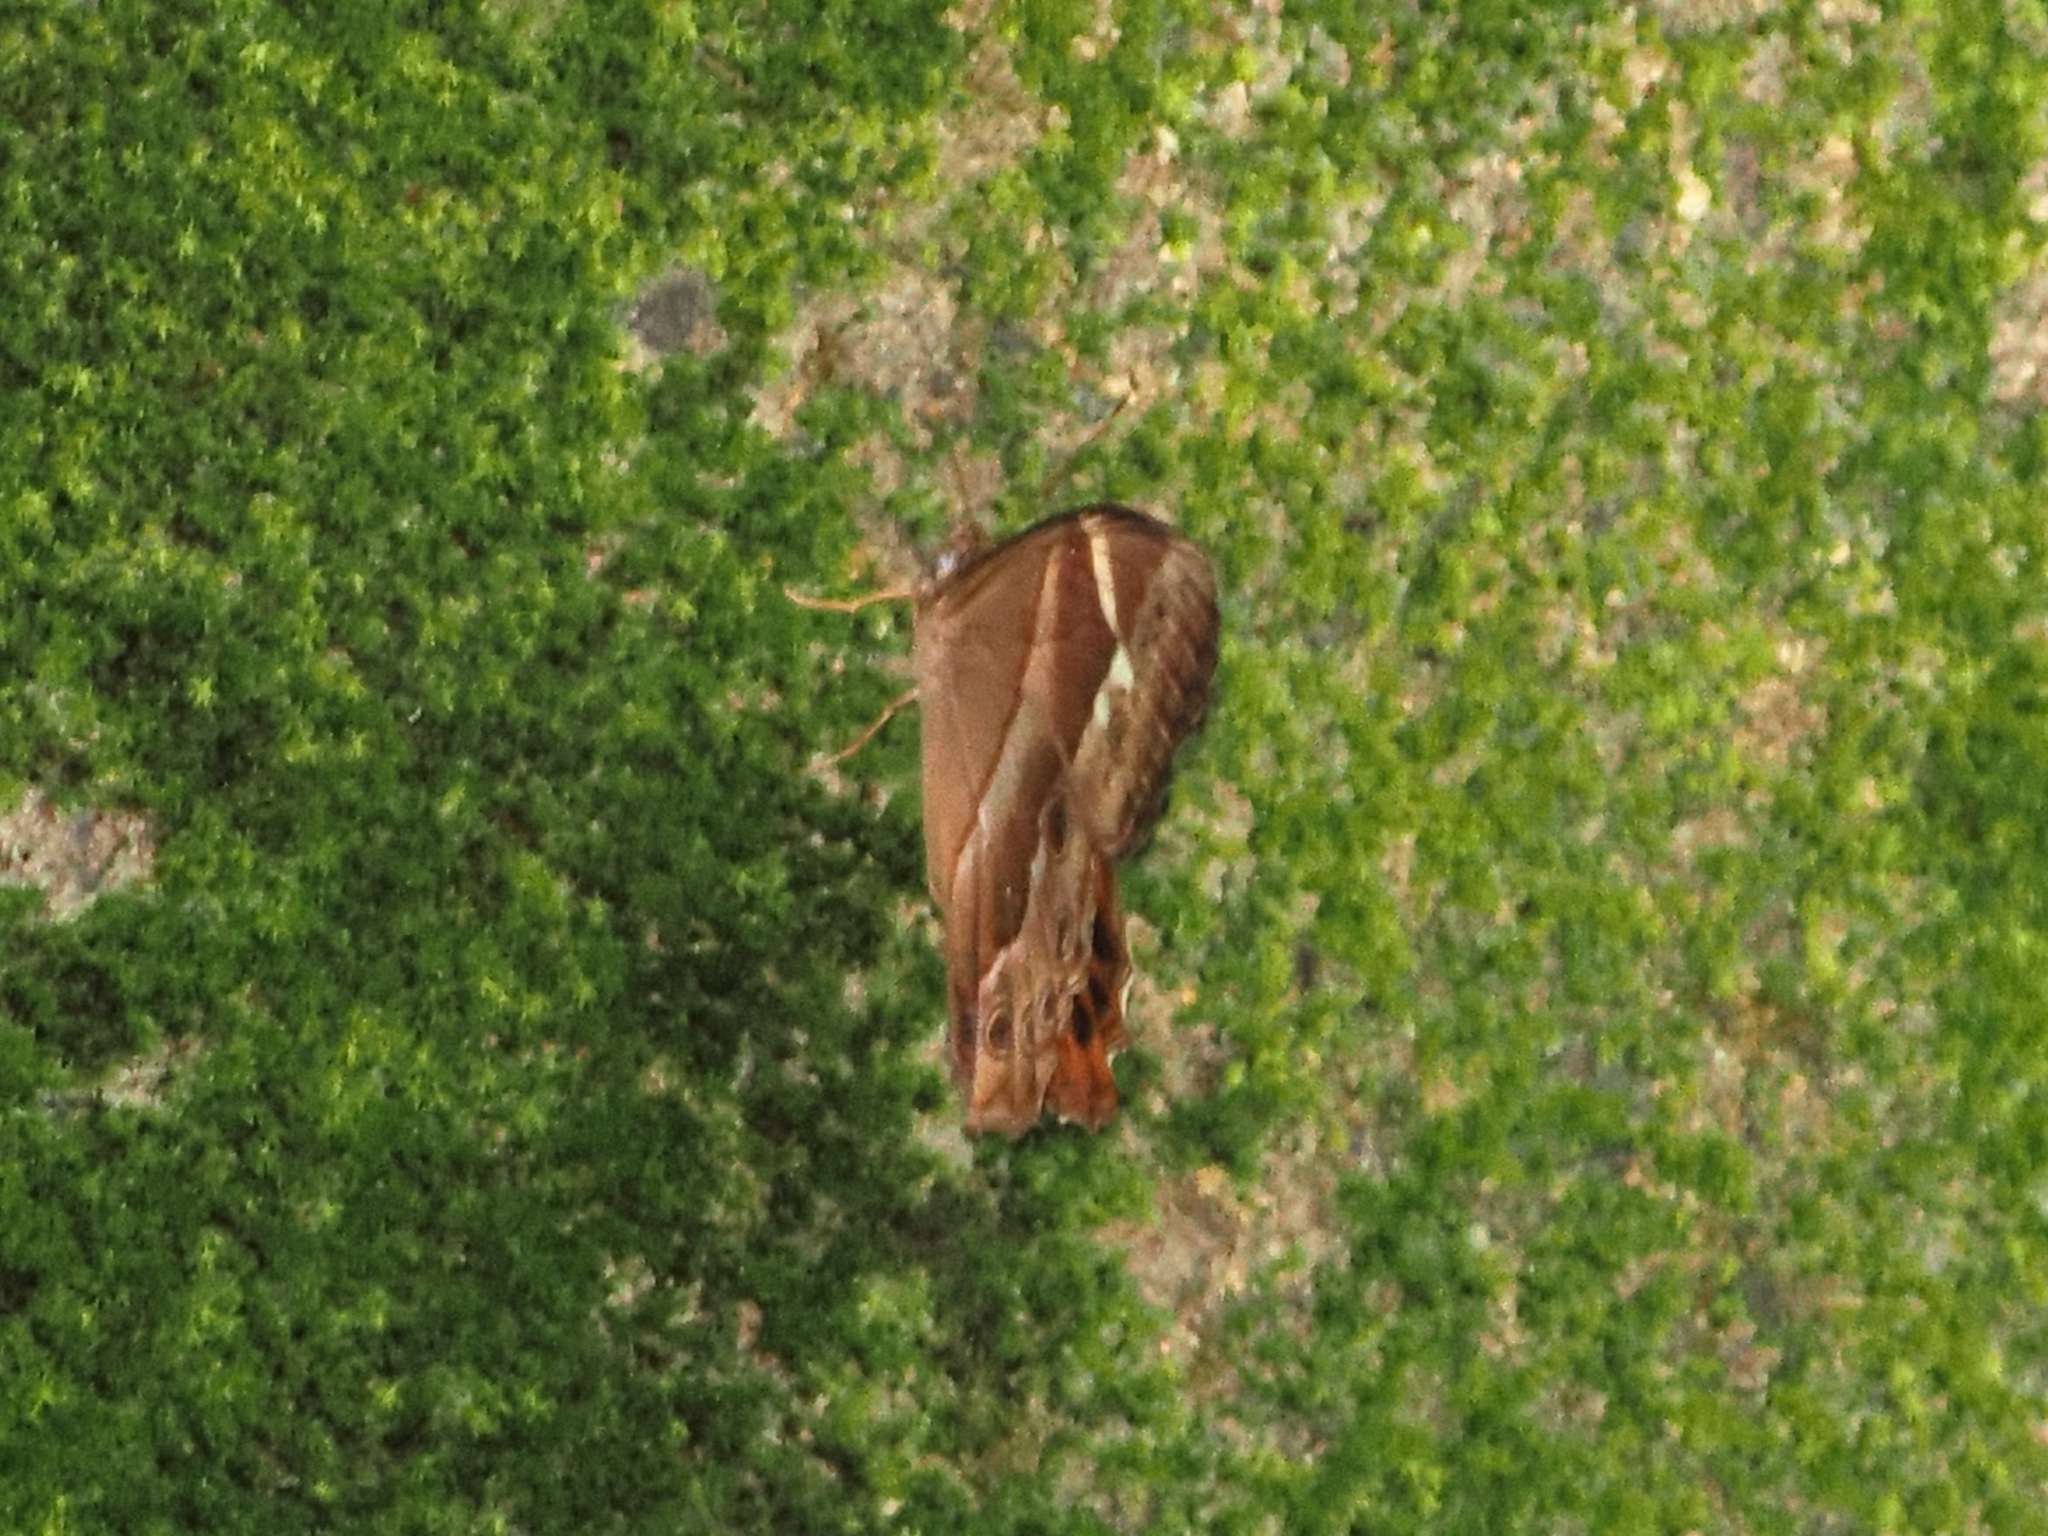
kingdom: Animalia
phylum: Arthropoda
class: Insecta
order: Lepidoptera
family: Nymphalidae
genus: Lethe
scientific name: Lethe mekara
